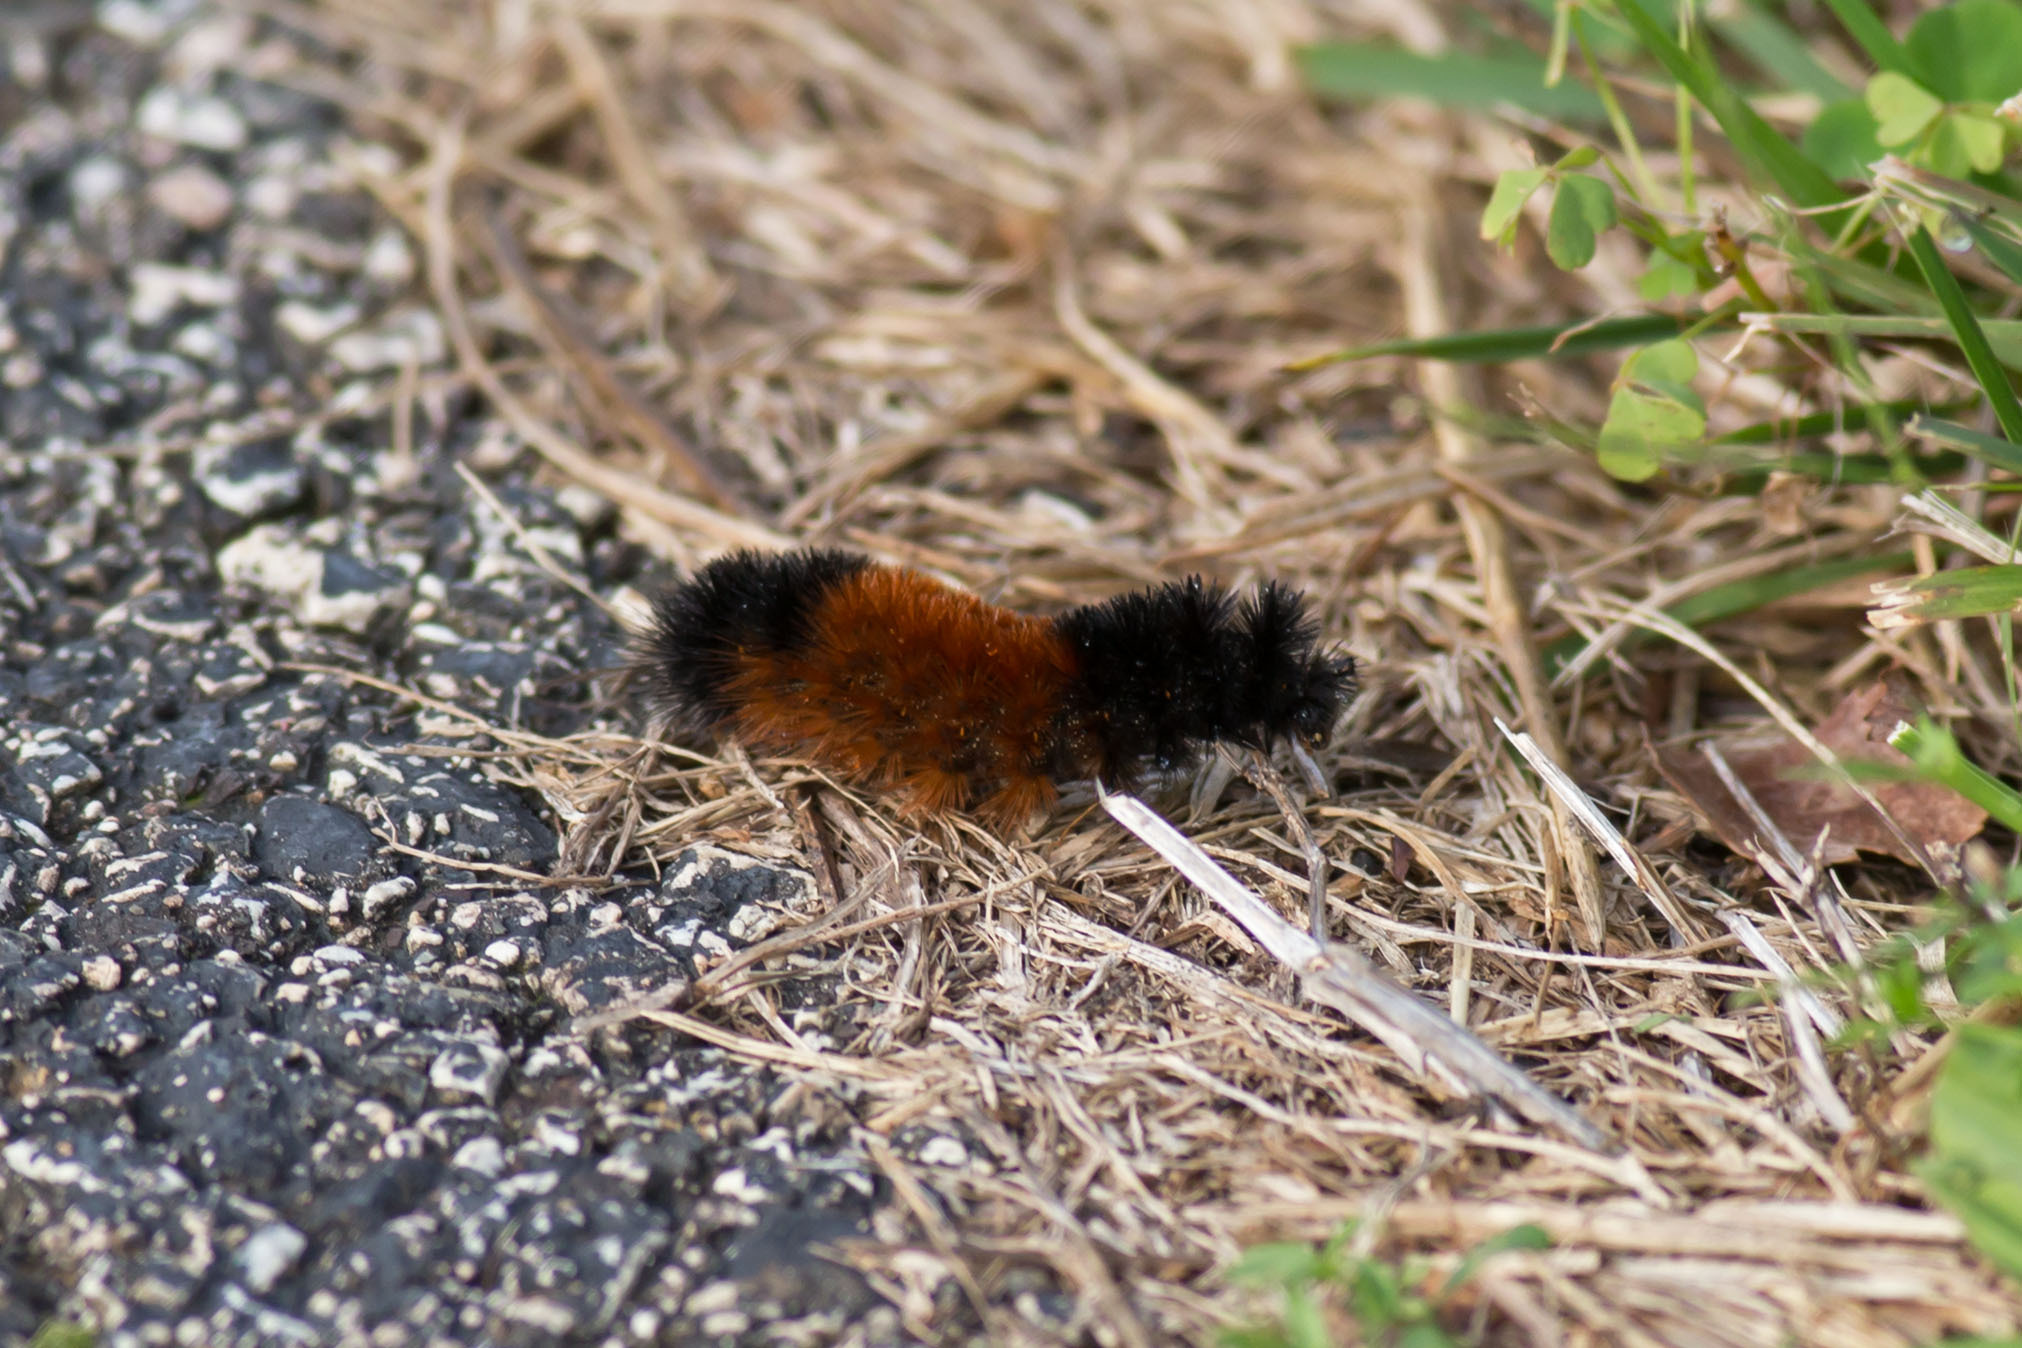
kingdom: Animalia
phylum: Arthropoda
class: Insecta
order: Lepidoptera
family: Erebidae
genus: Pyrrharctia
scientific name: Pyrrharctia isabella
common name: Isabella tiger moth
